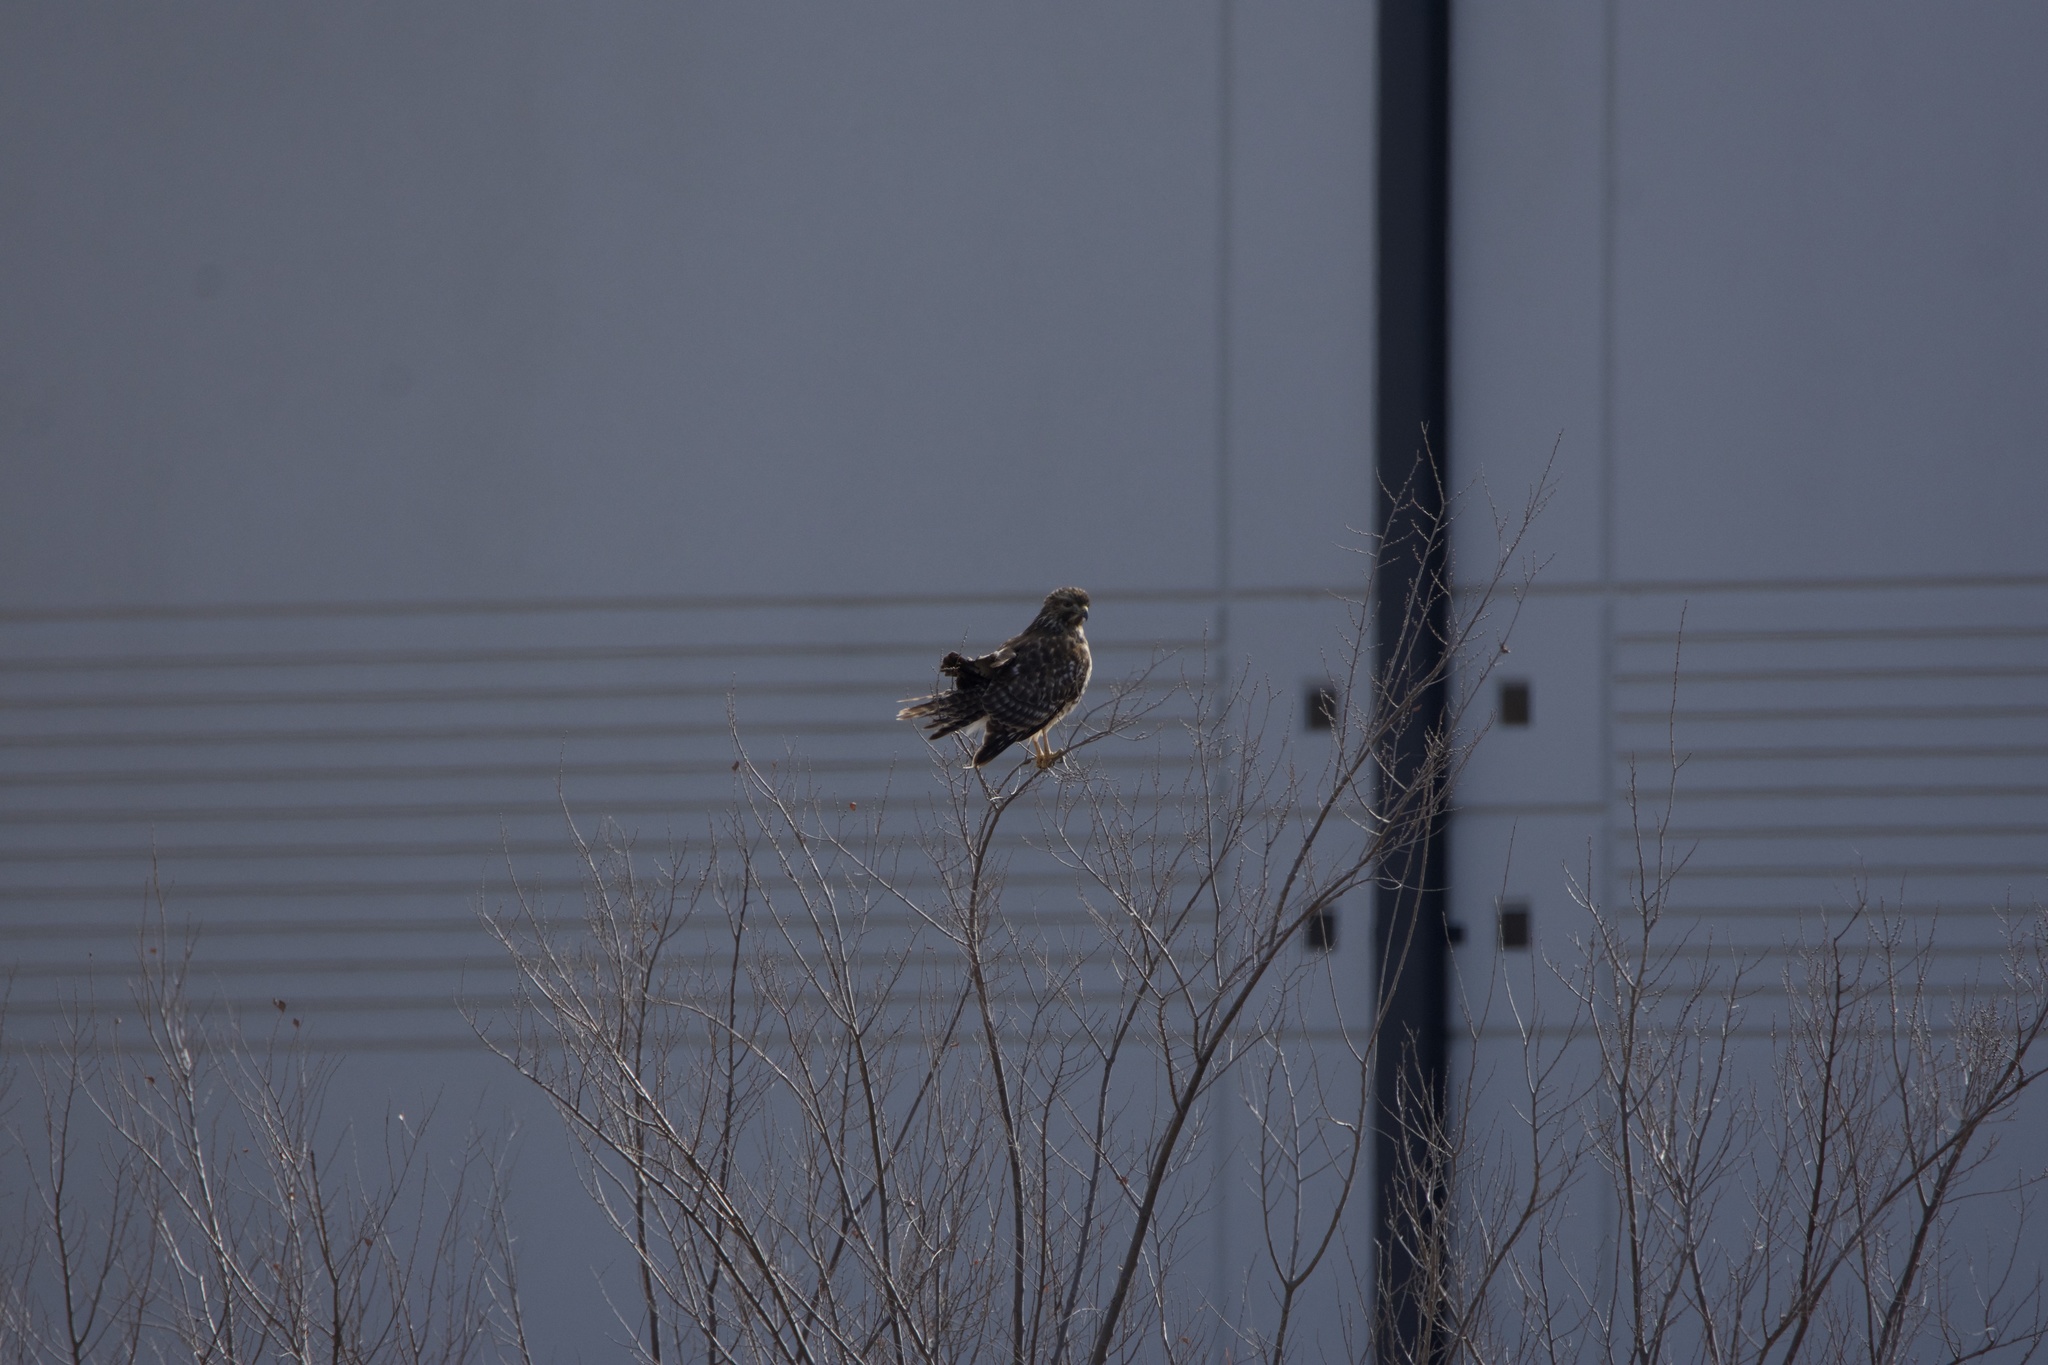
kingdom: Animalia
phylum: Chordata
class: Aves
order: Accipitriformes
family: Accipitridae
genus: Buteo
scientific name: Buteo lineatus
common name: Red-shouldered hawk
